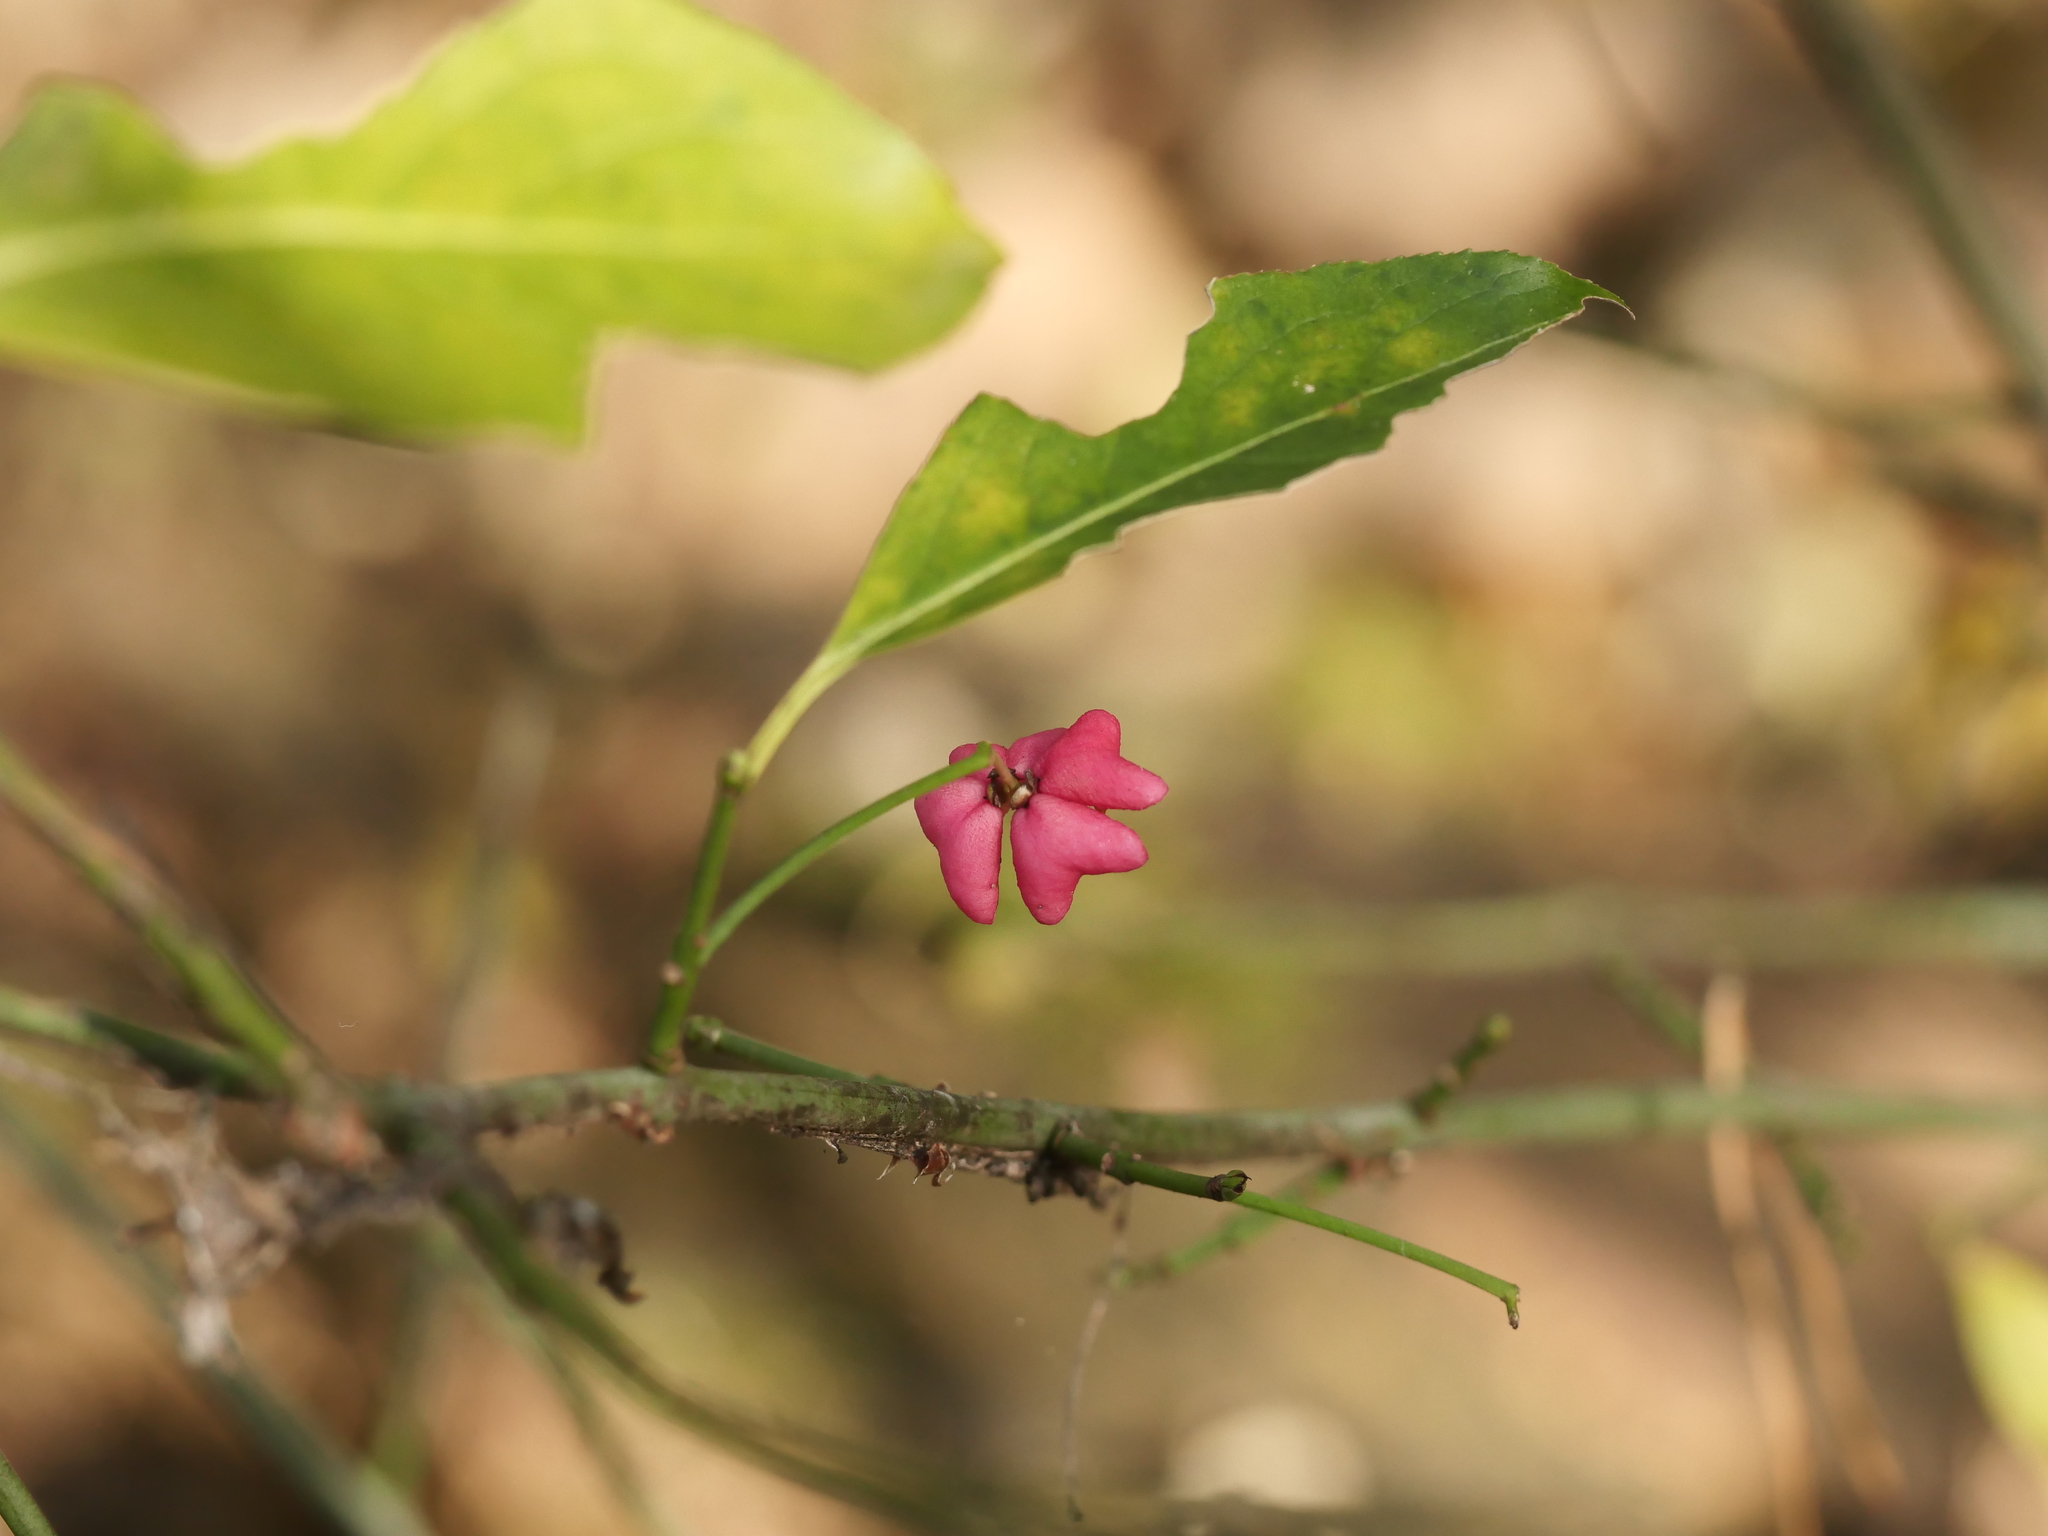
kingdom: Plantae
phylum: Tracheophyta
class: Magnoliopsida
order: Celastrales
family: Celastraceae
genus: Euonymus
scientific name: Euonymus europaeus
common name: Spindle
